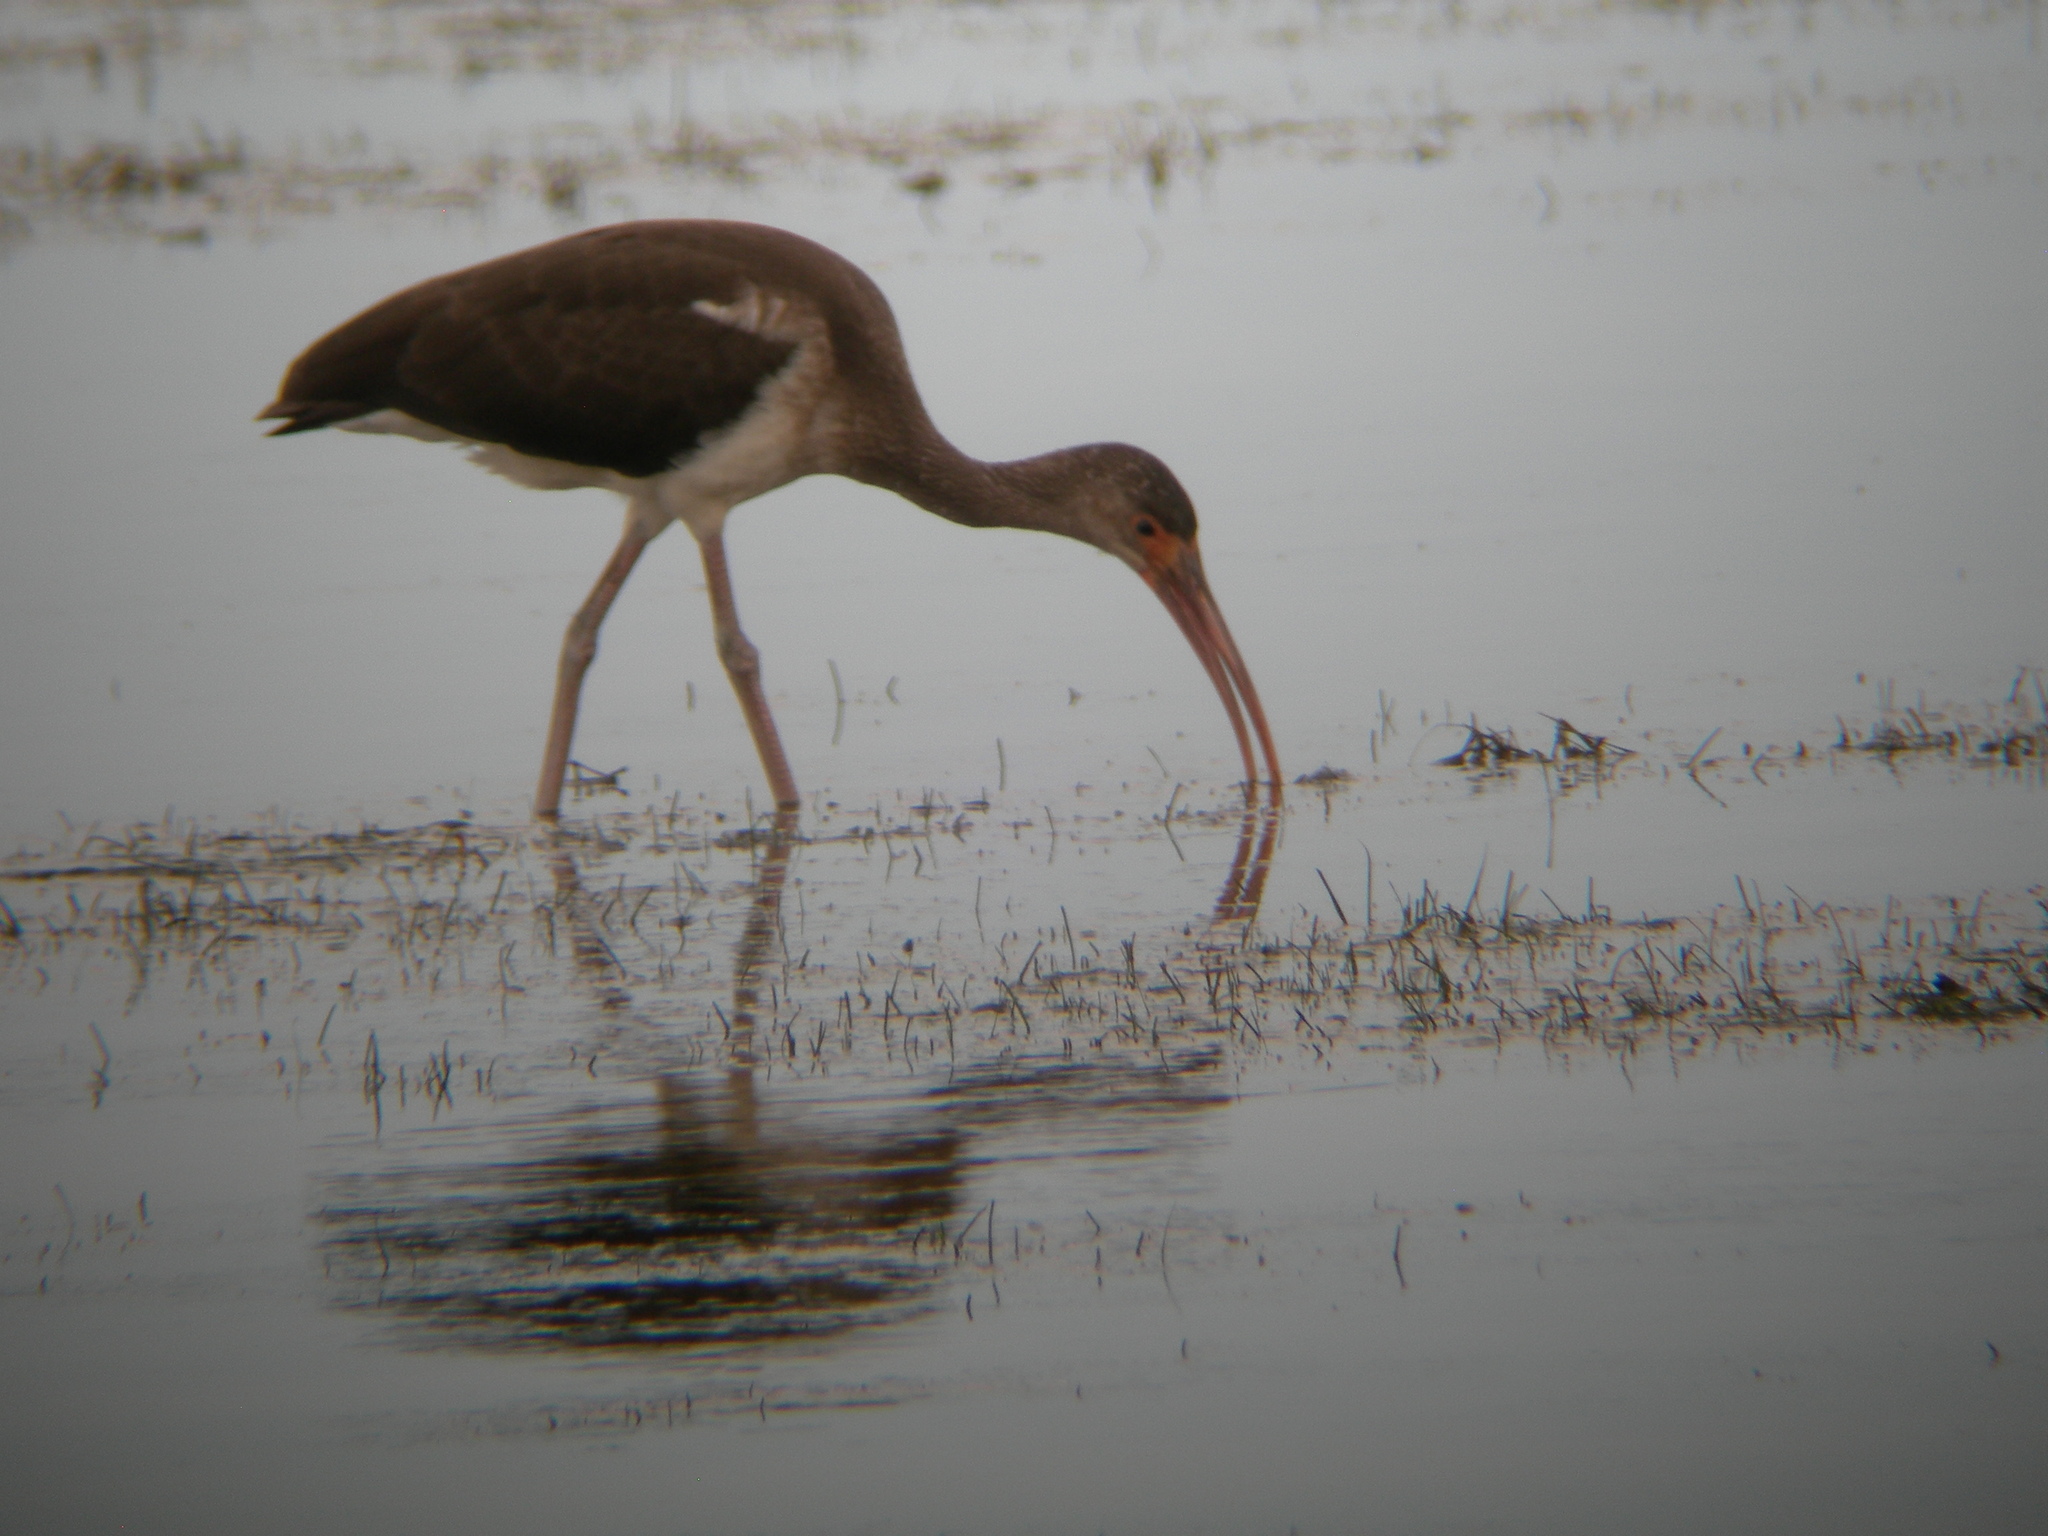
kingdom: Animalia
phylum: Chordata
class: Aves
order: Pelecaniformes
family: Threskiornithidae
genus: Eudocimus
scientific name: Eudocimus albus
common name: White ibis
